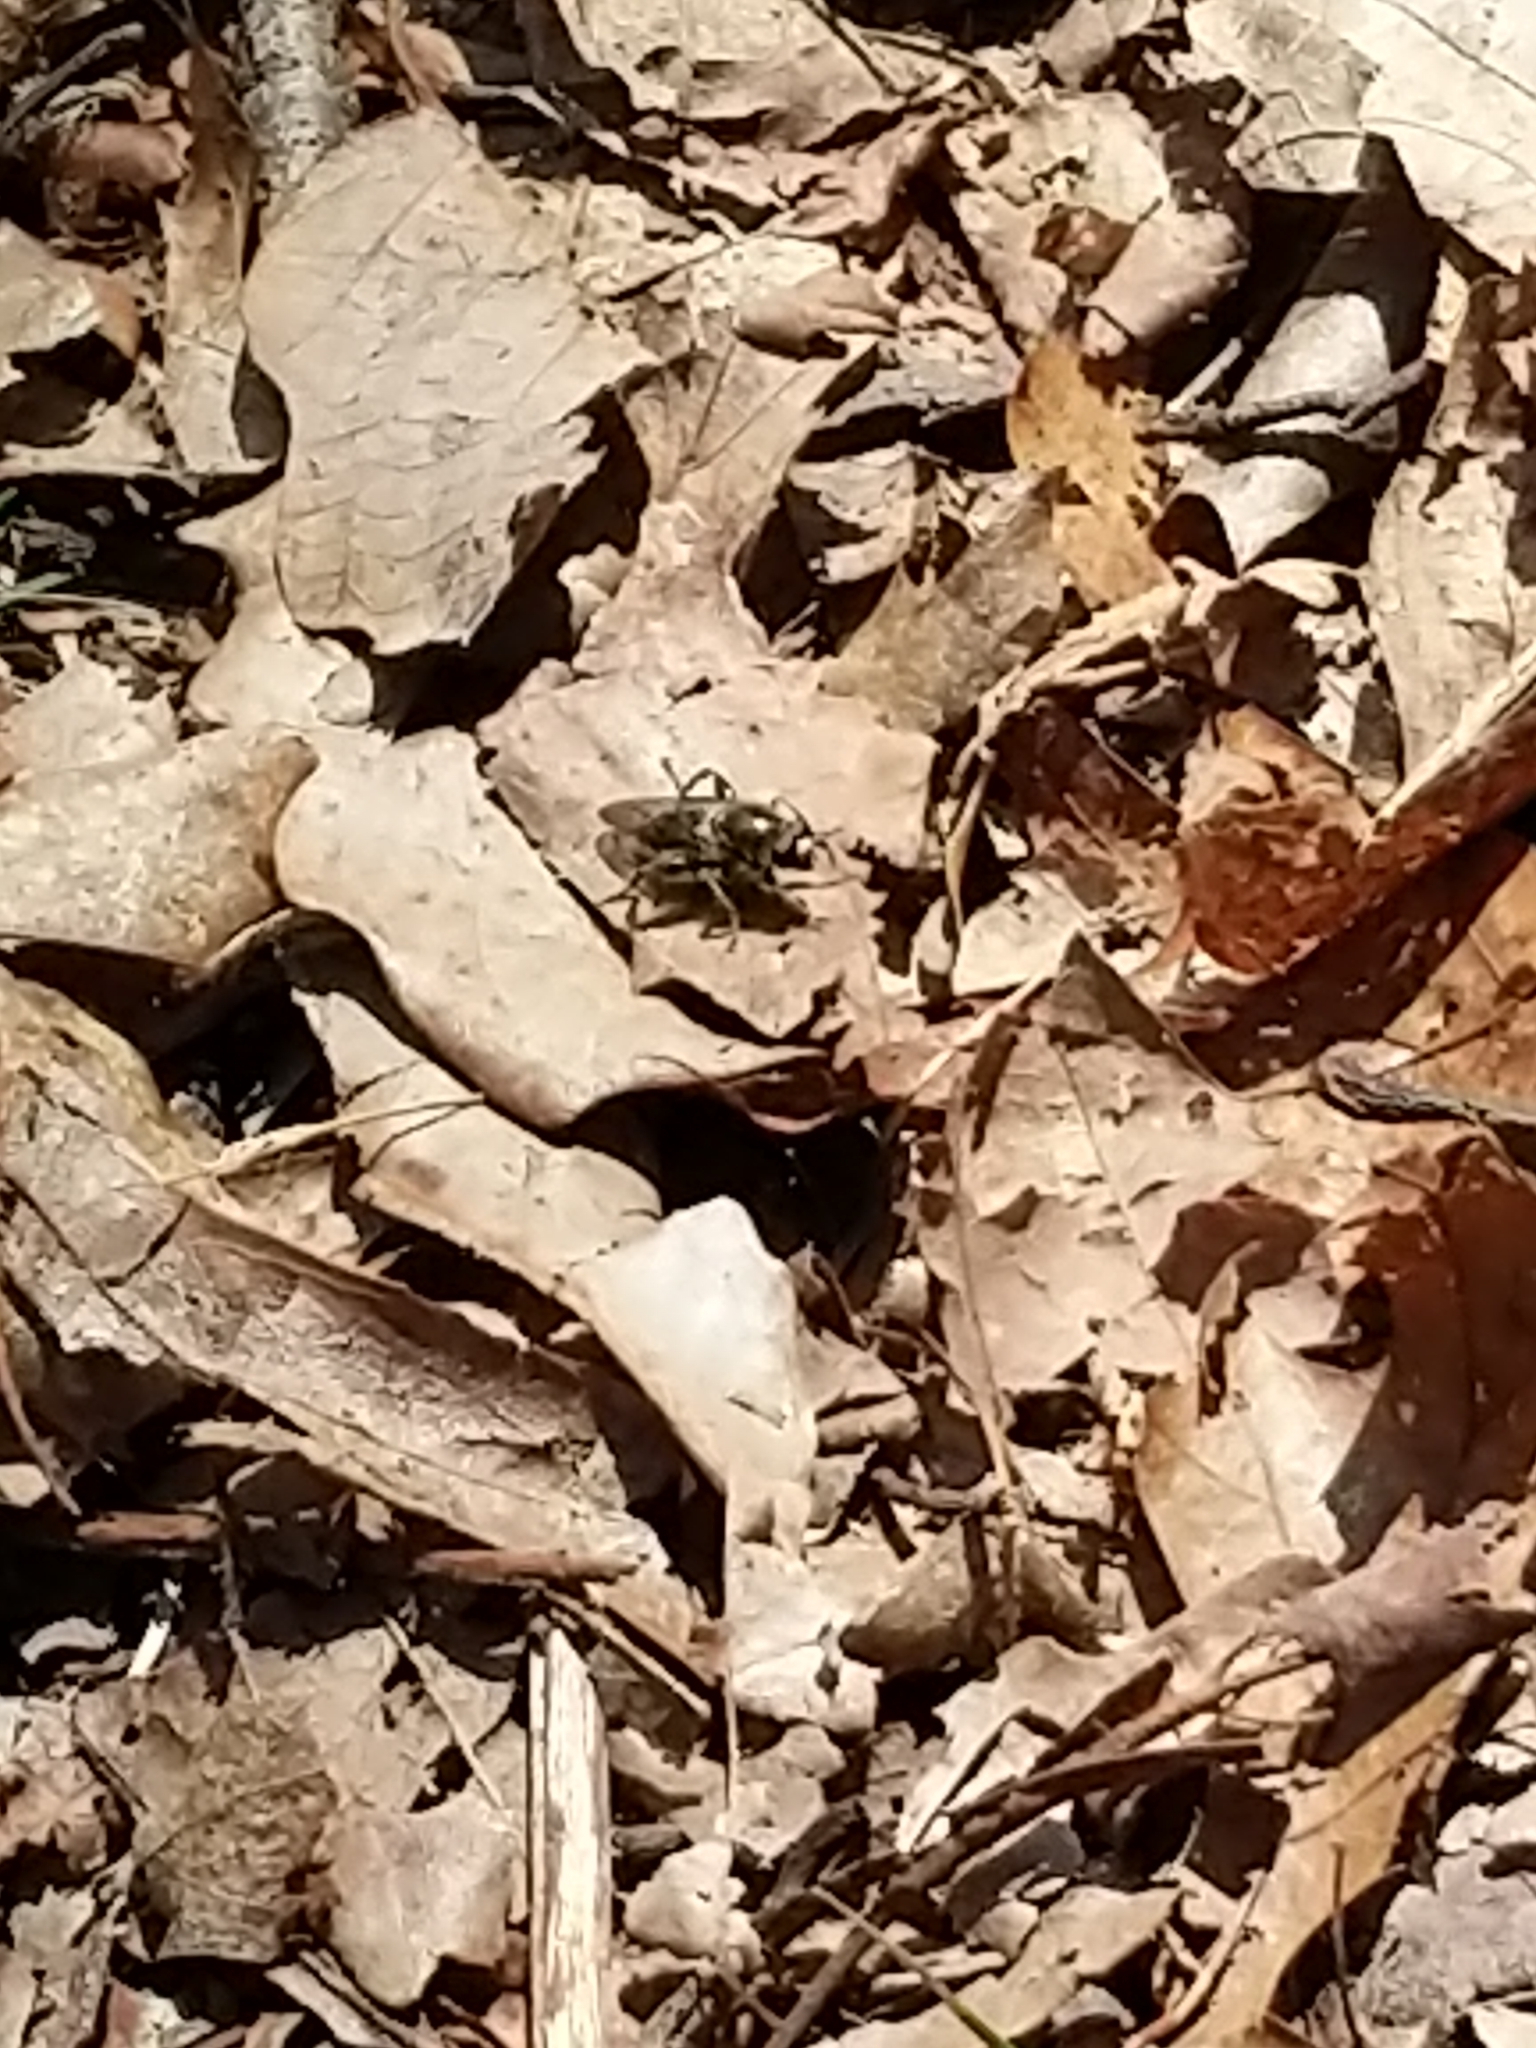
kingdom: Animalia
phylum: Arthropoda
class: Insecta
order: Diptera
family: Syrphidae
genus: Brachypalpus
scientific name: Brachypalpus oarus
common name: Eastern catkin fly
